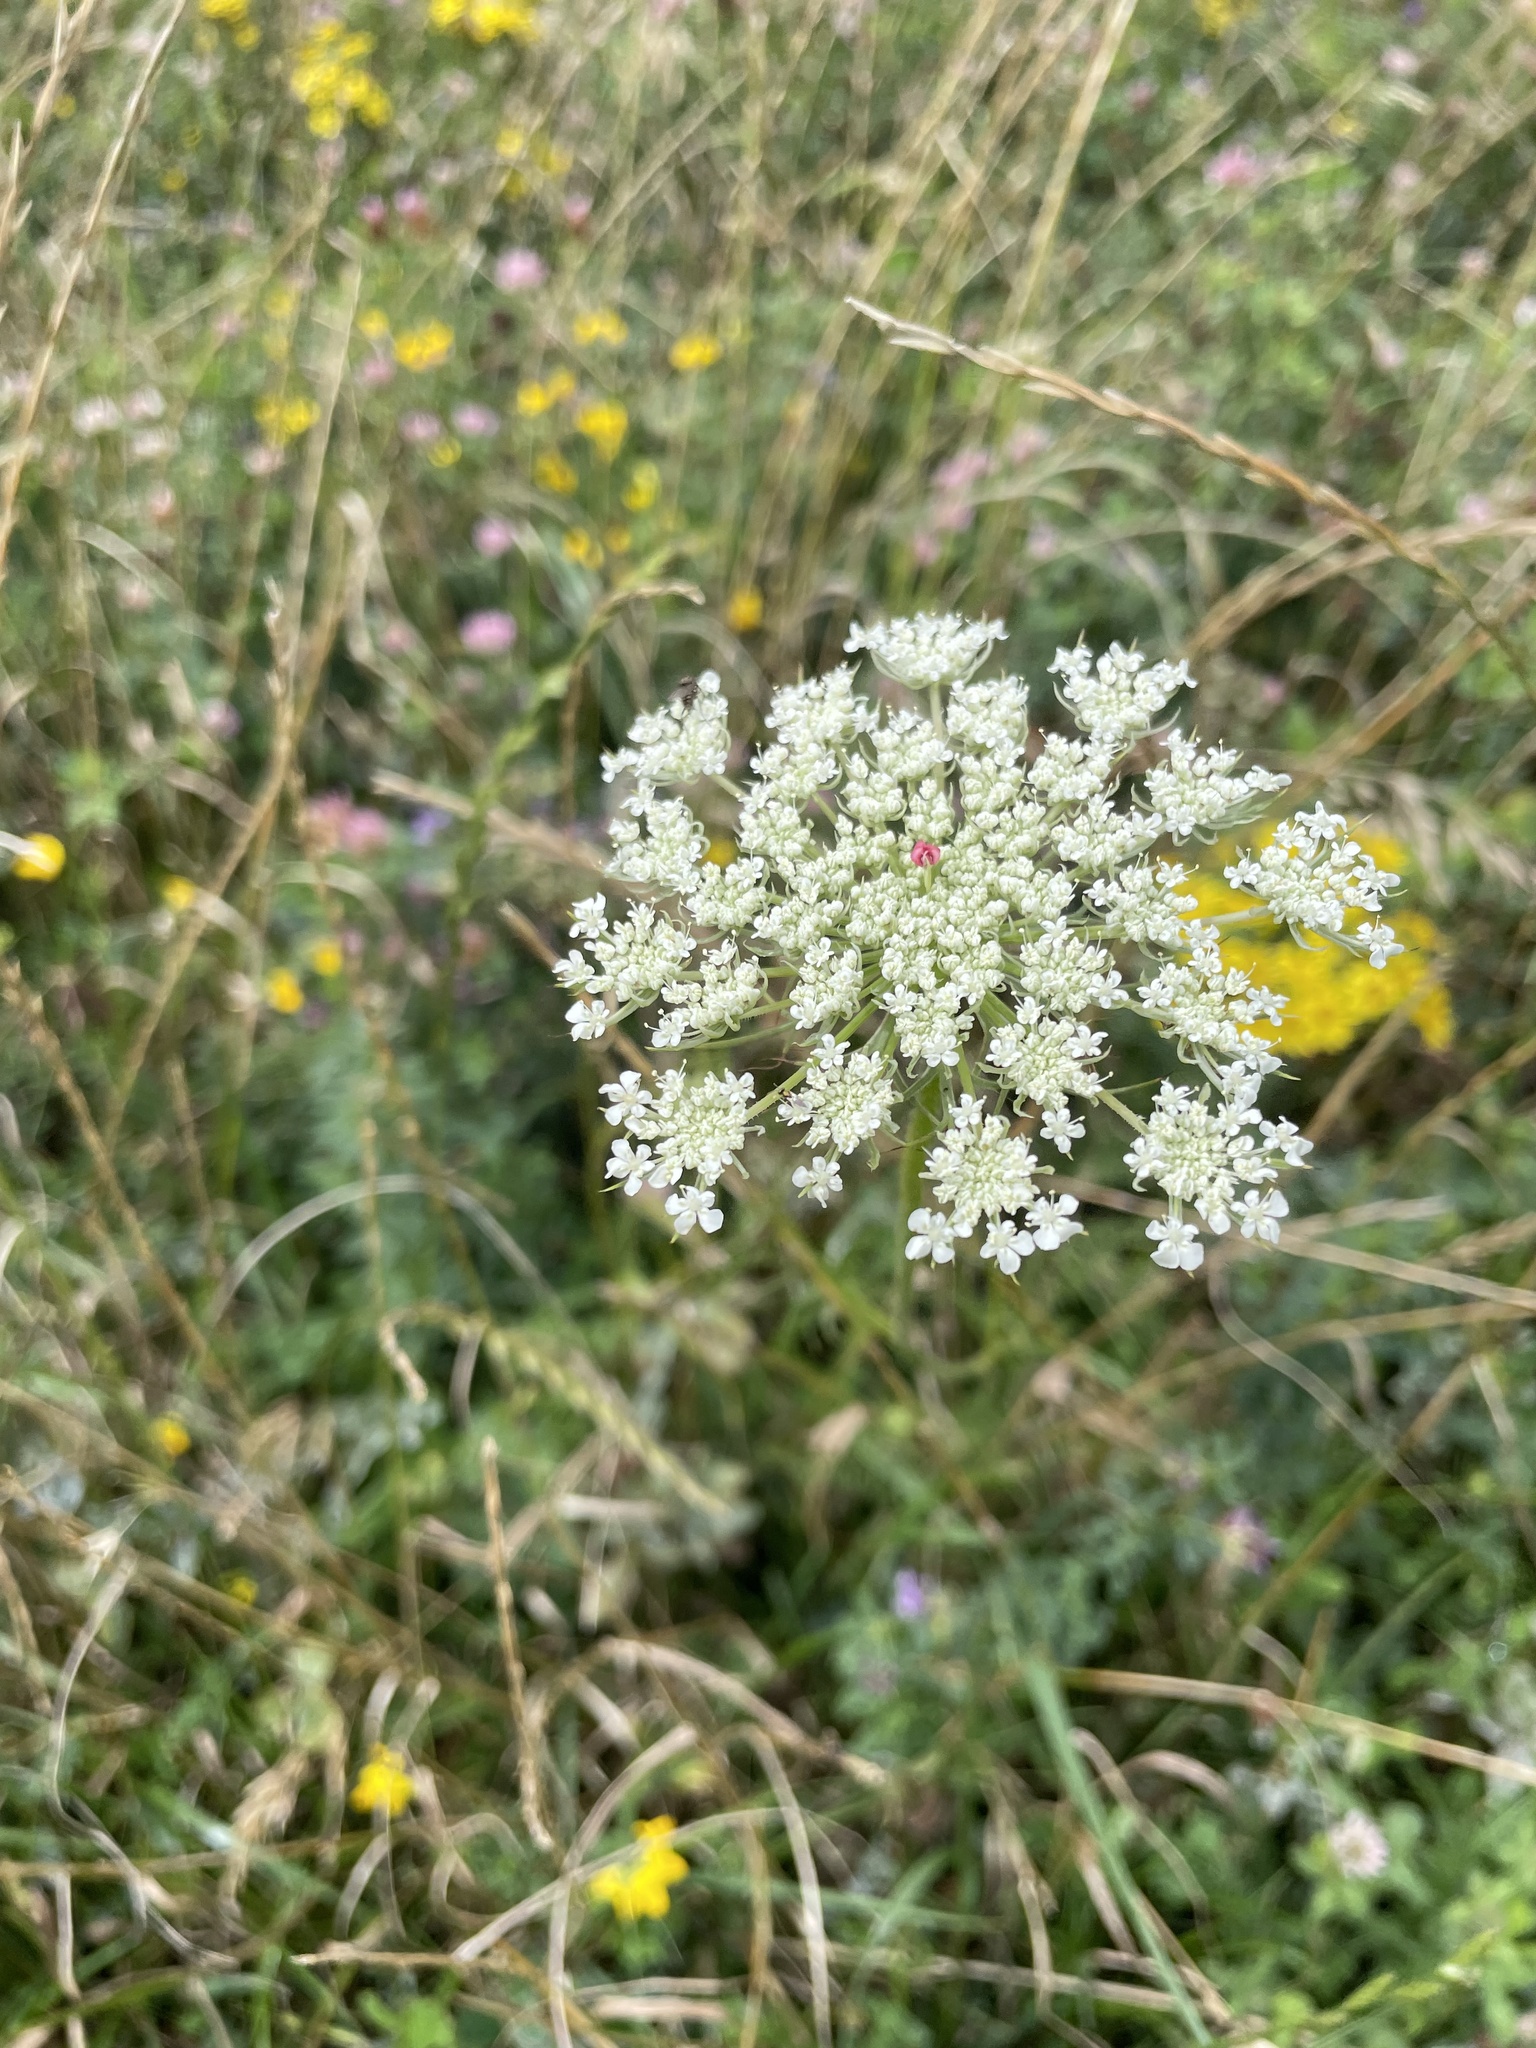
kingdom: Plantae
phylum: Tracheophyta
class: Magnoliopsida
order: Apiales
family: Apiaceae
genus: Daucus
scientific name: Daucus carota
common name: Wild carrot
